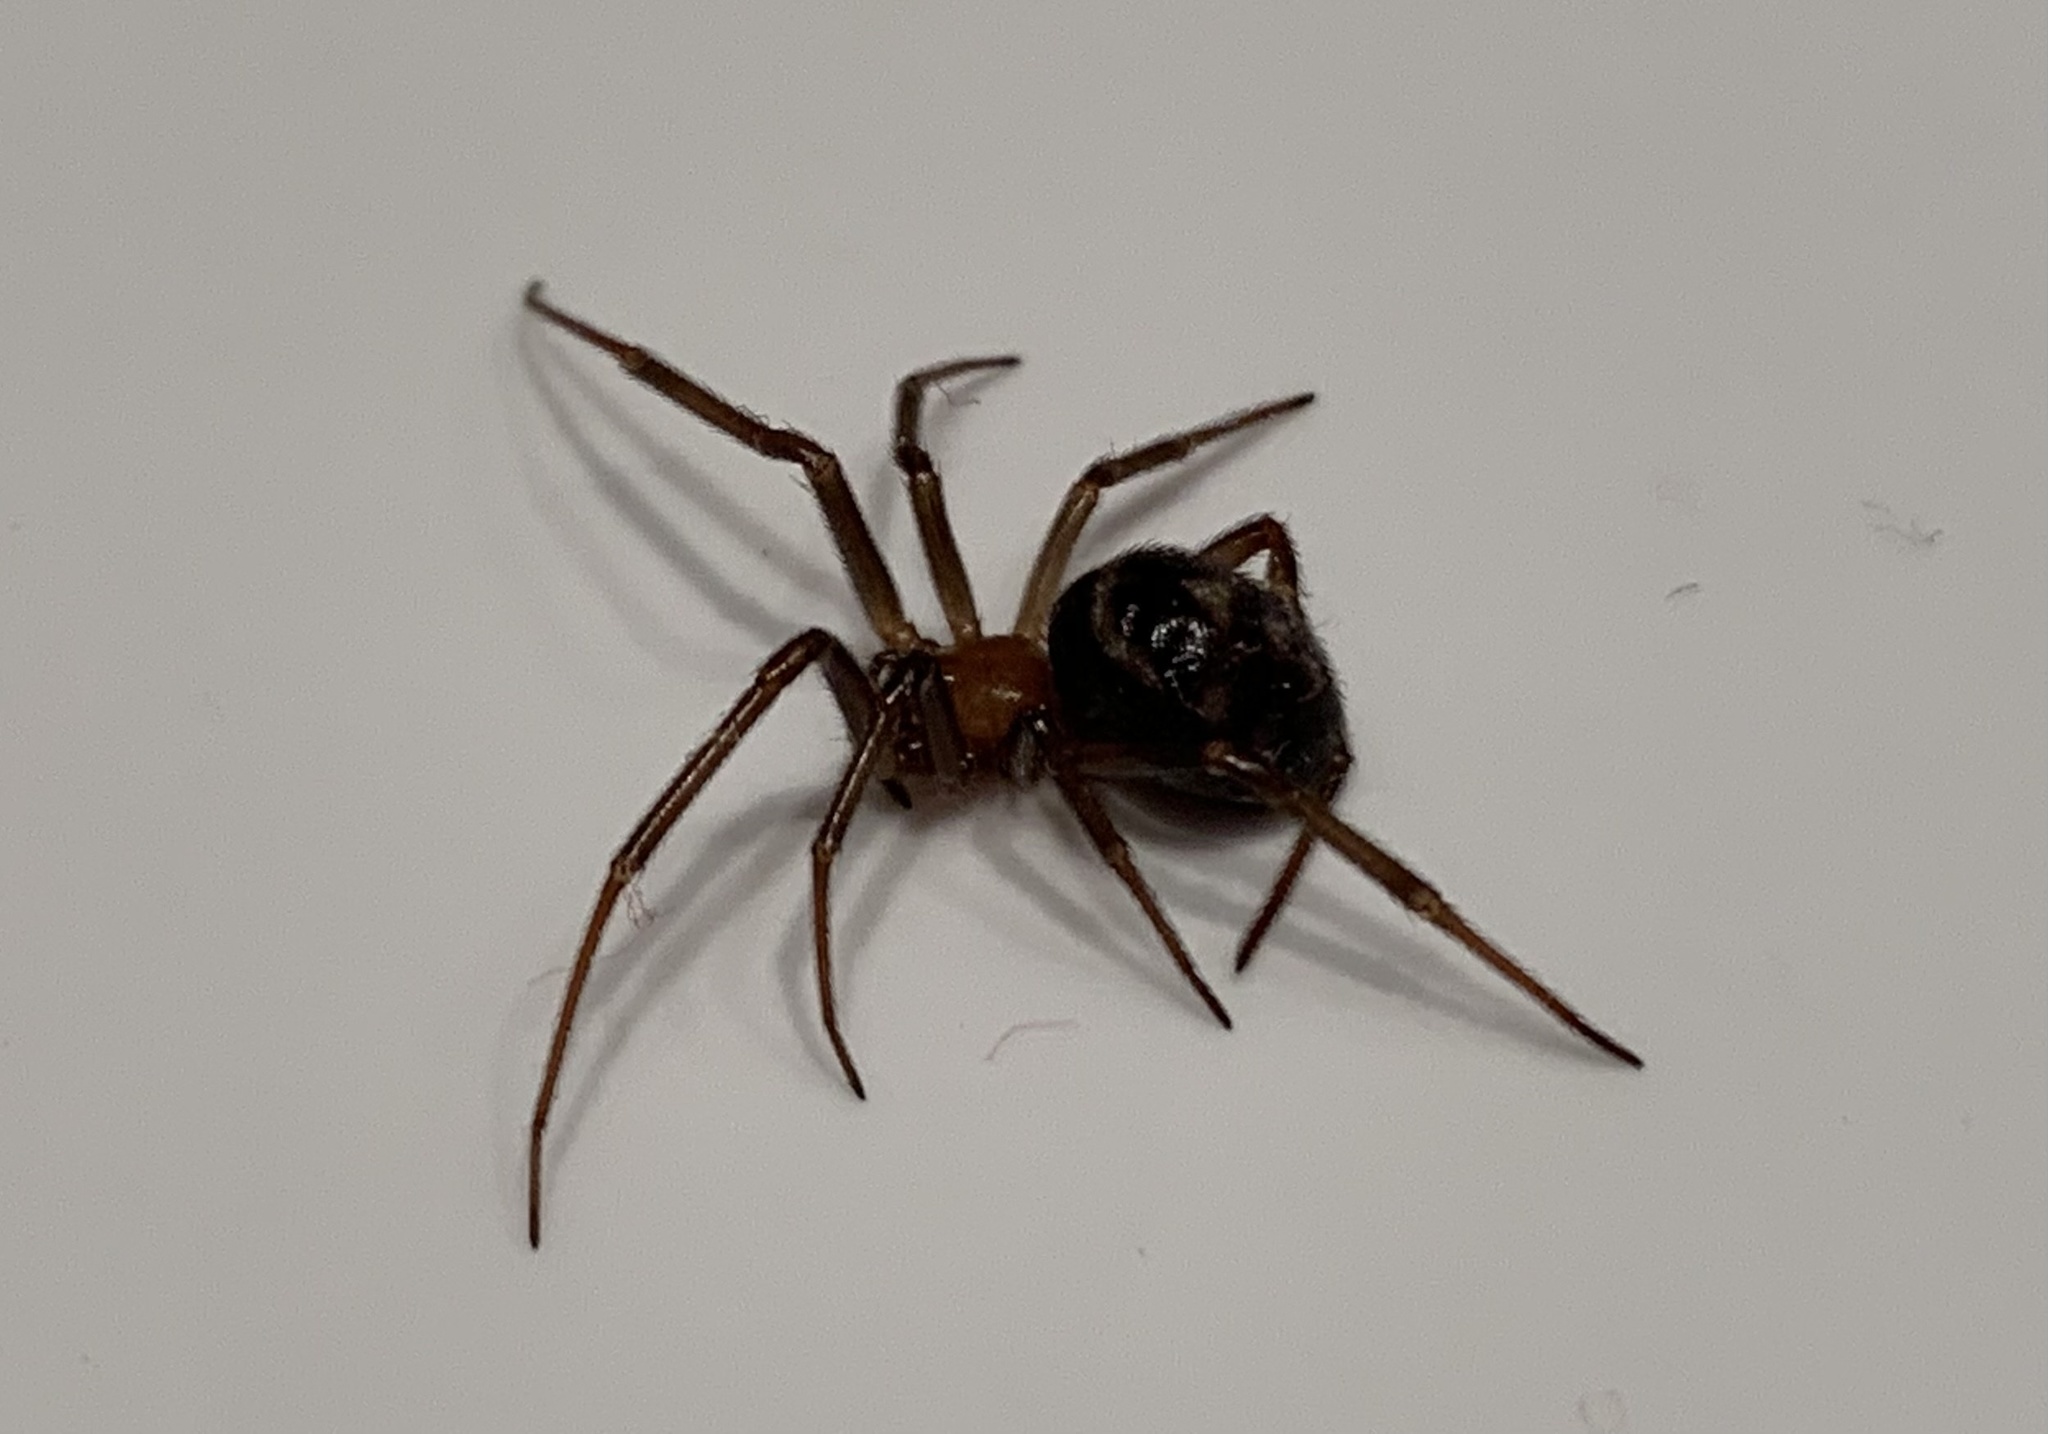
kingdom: Animalia
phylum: Arthropoda
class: Arachnida
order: Araneae
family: Theridiidae
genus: Steatoda
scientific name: Steatoda grossa
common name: False black widow
